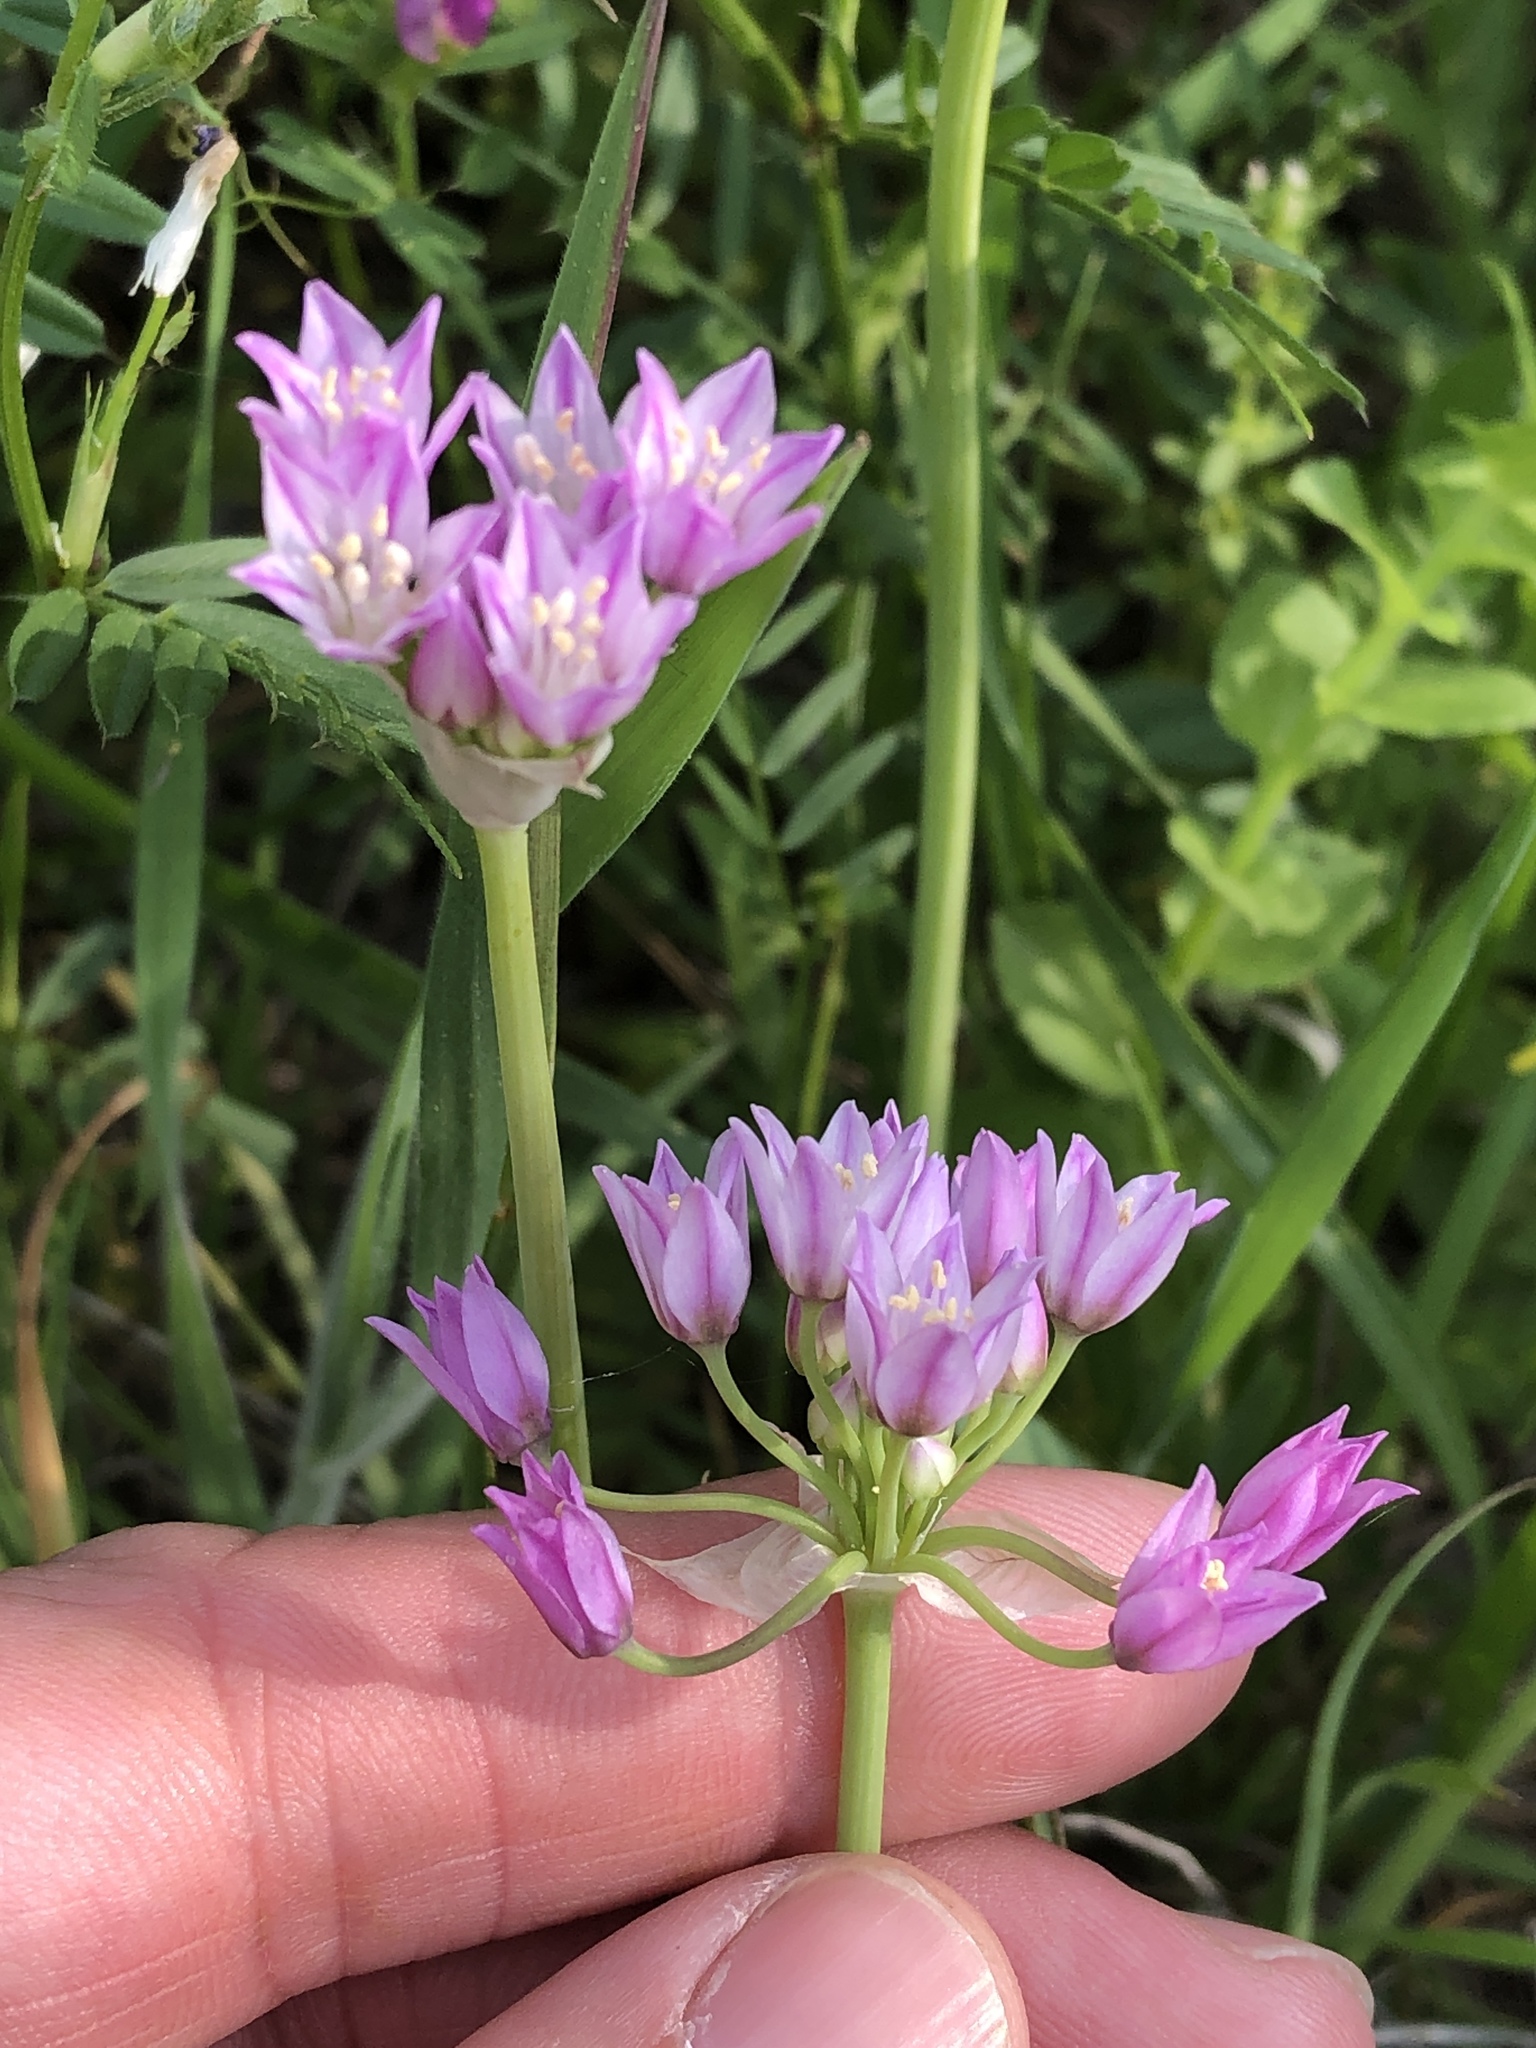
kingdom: Plantae
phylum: Tracheophyta
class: Liliopsida
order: Asparagales
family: Amaryllidaceae
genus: Allium
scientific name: Allium drummondii
